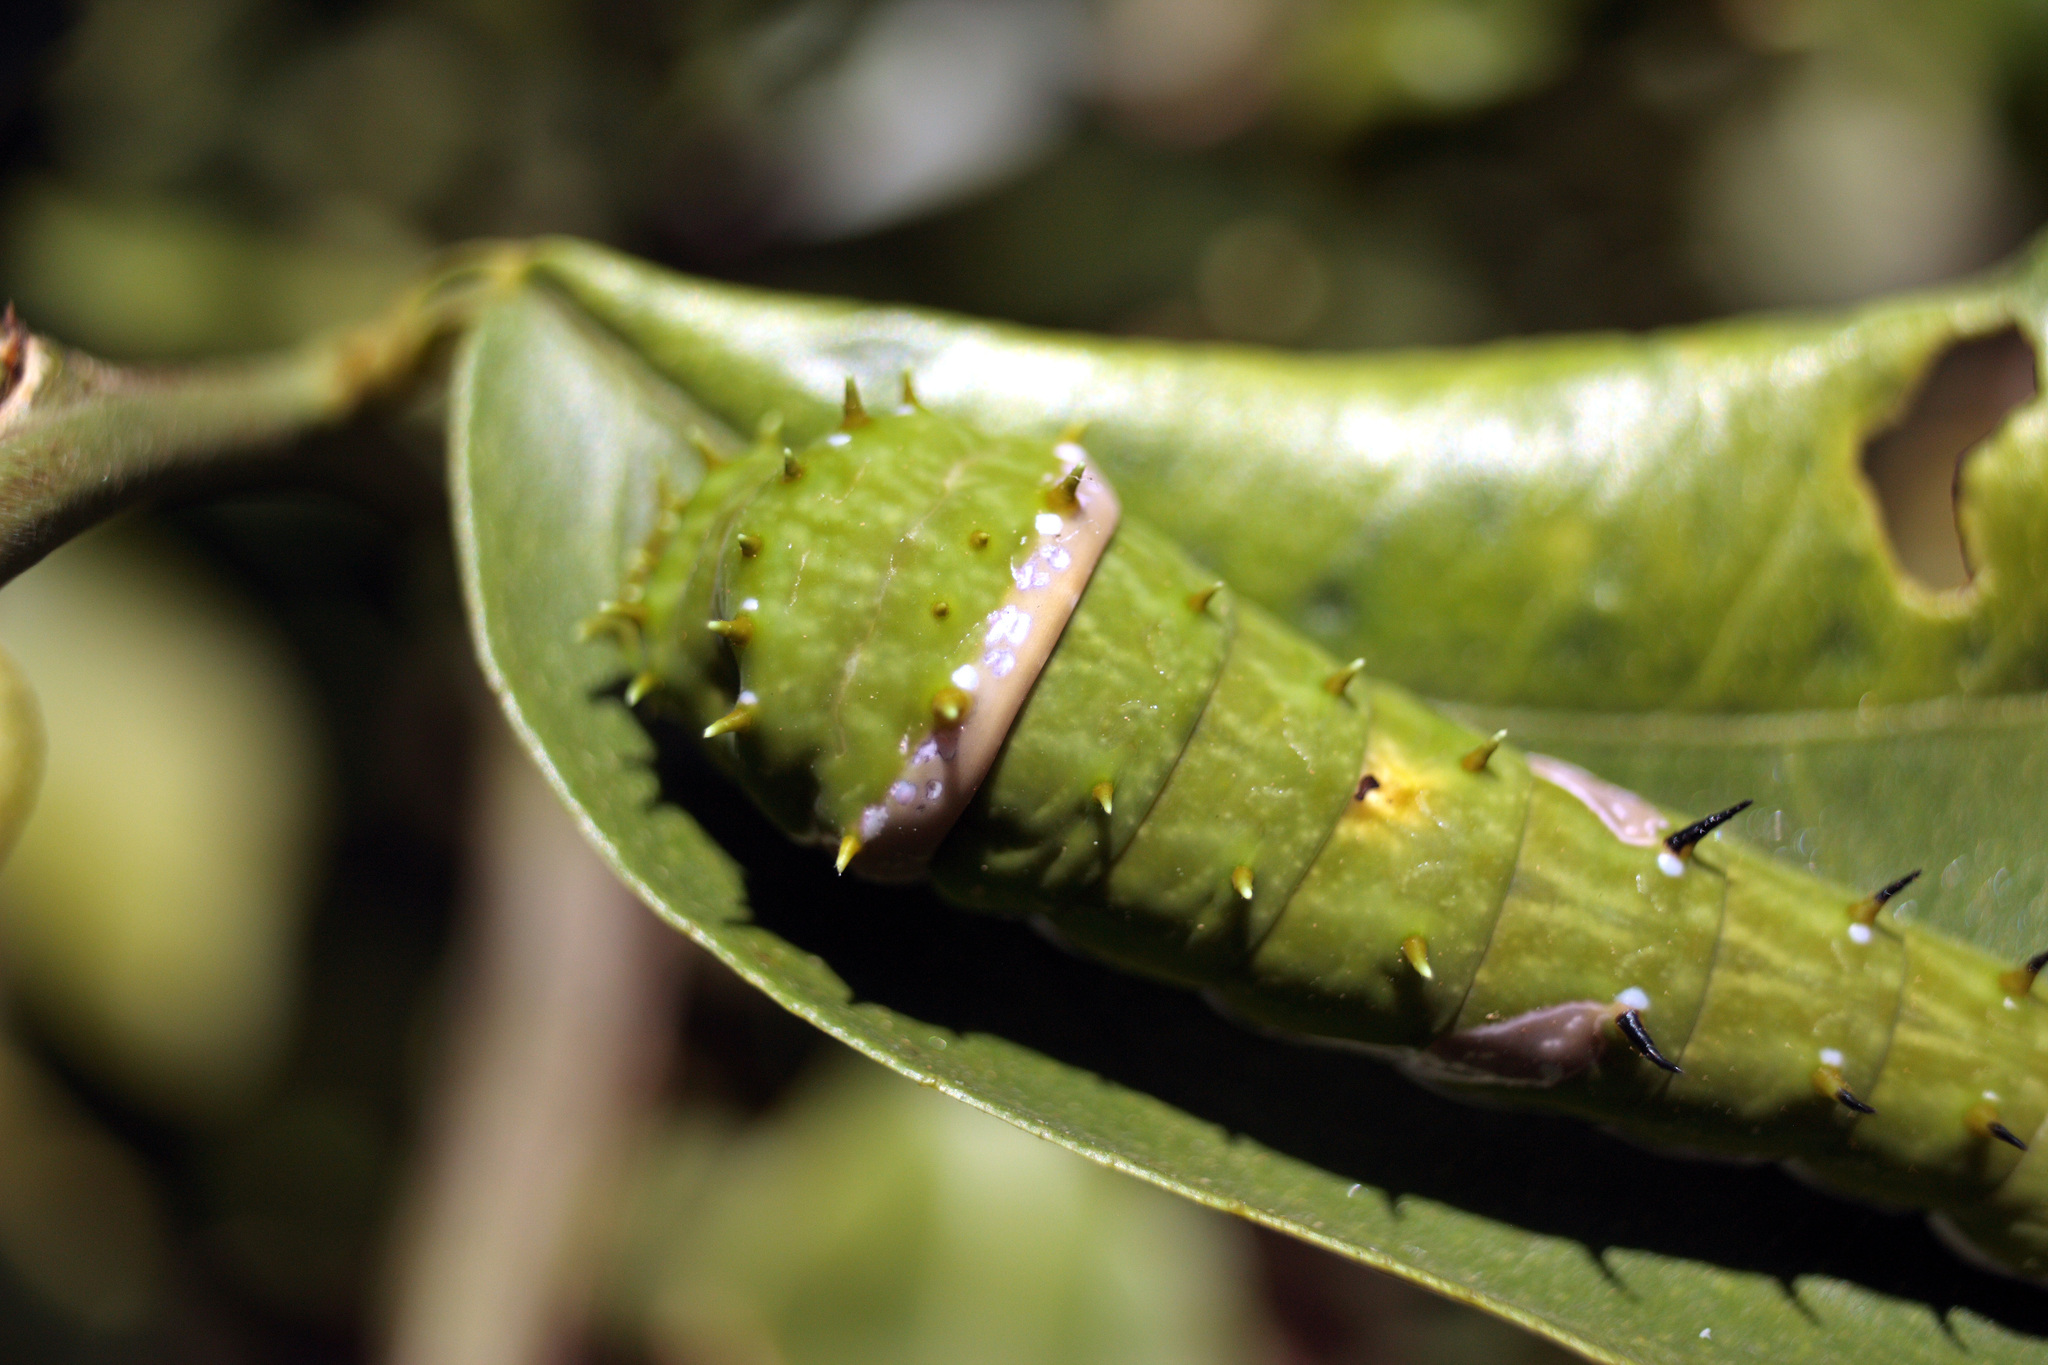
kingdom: Animalia
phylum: Arthropoda
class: Insecta
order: Lepidoptera
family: Papilionidae
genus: Papilio
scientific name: Papilio aegeus
